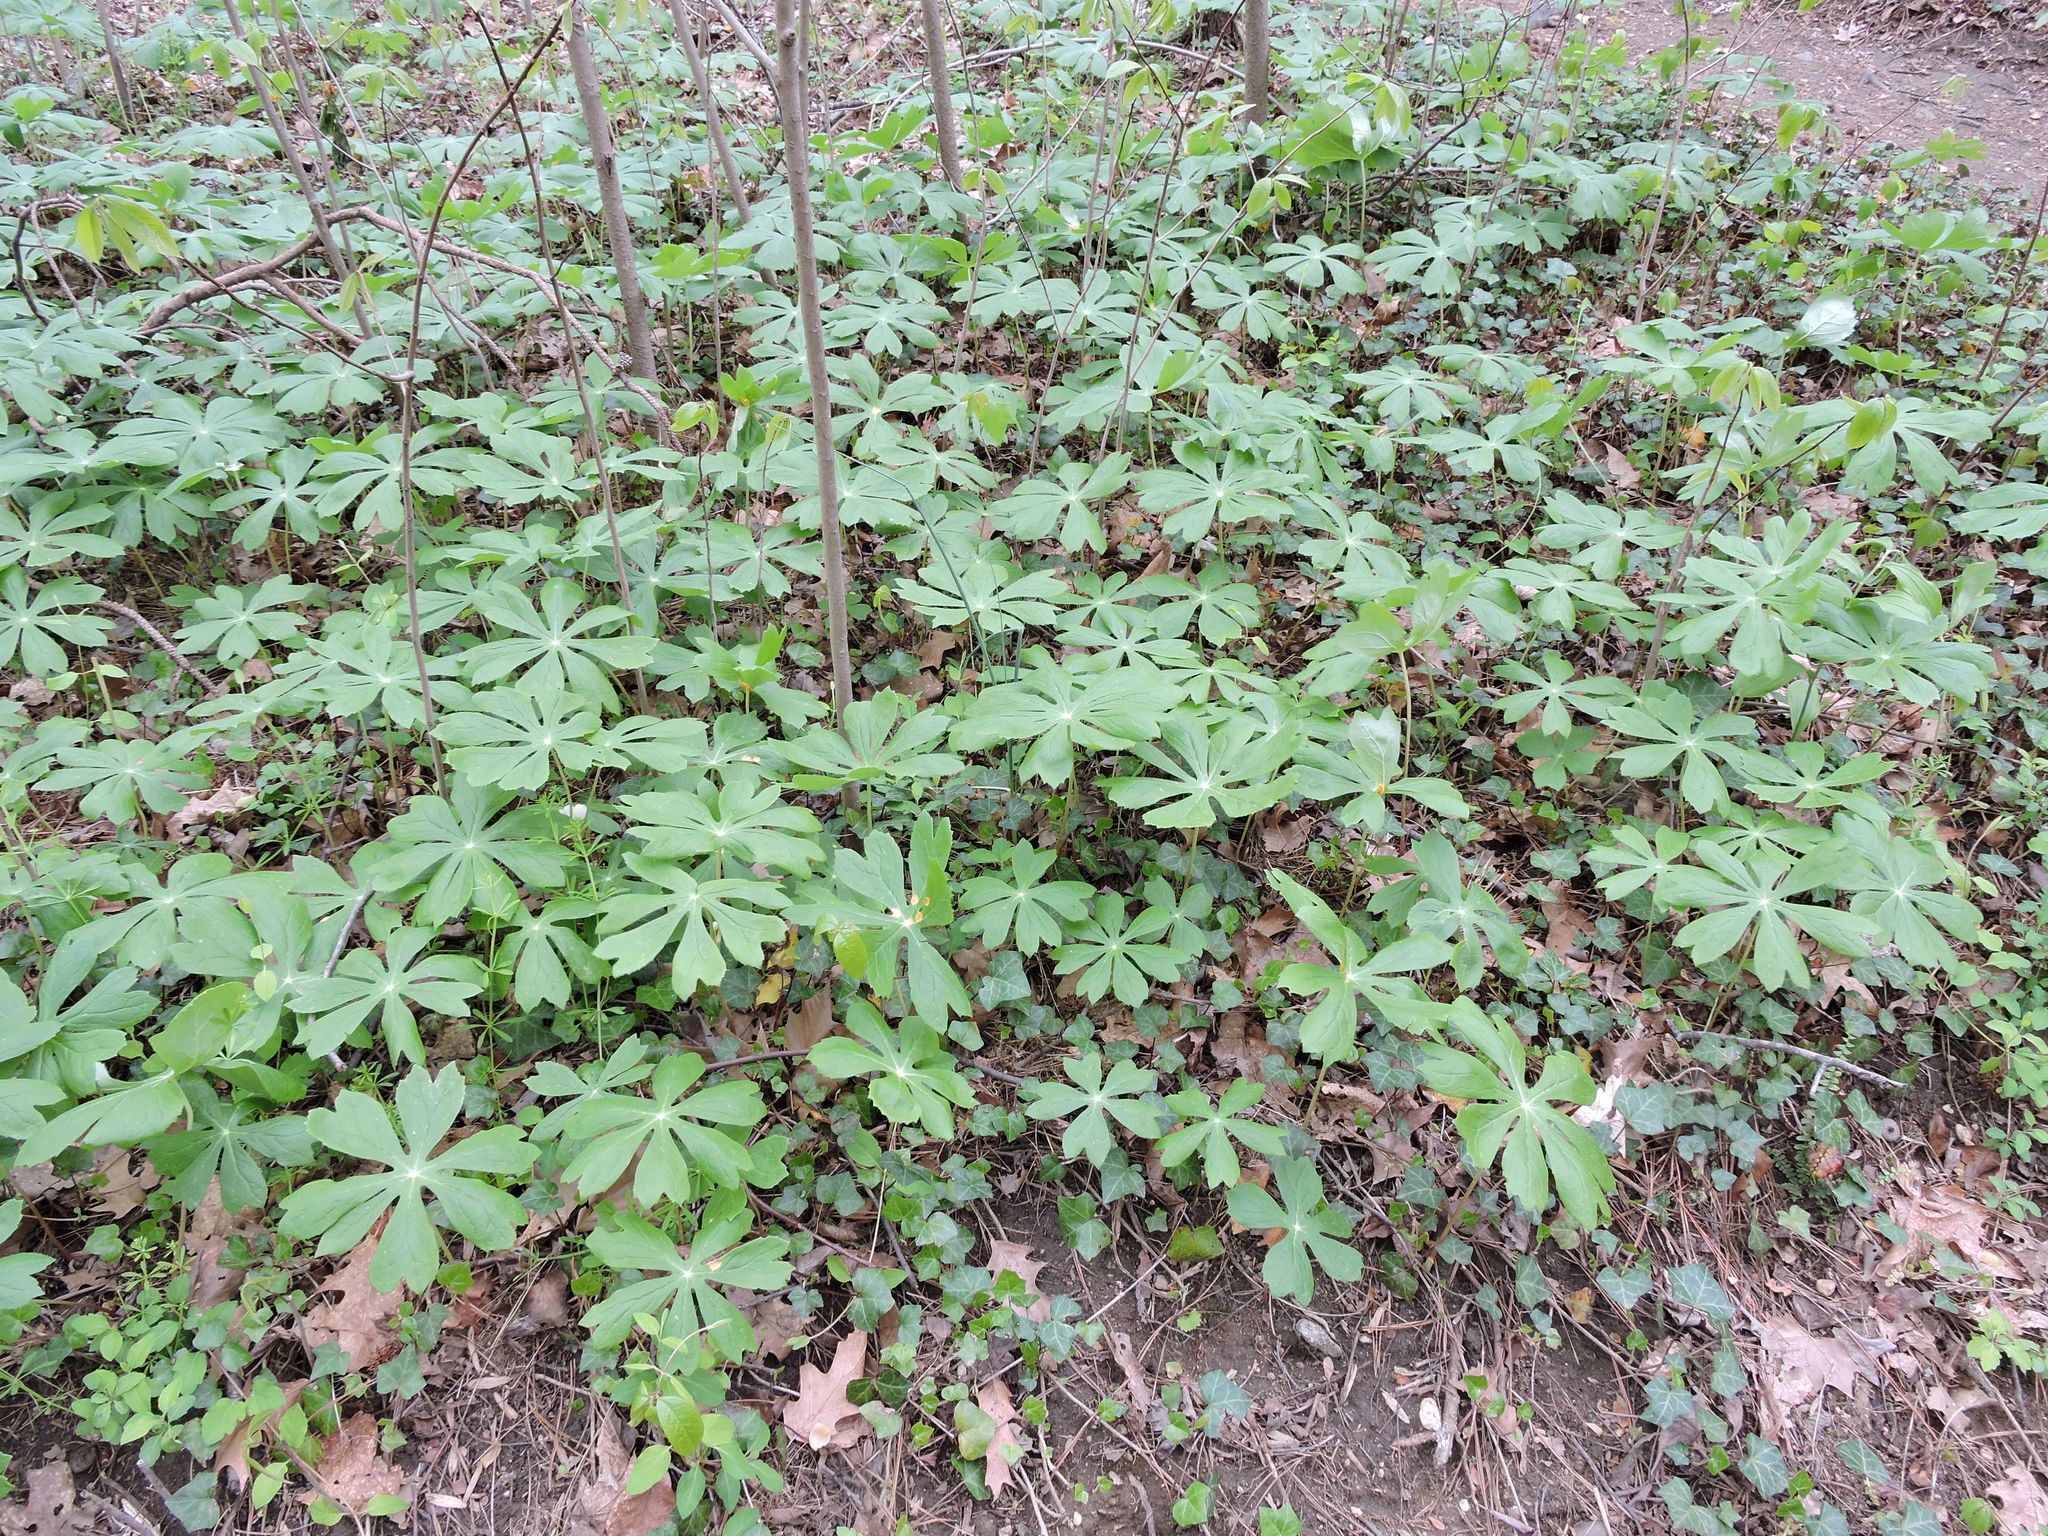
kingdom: Plantae
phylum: Tracheophyta
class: Magnoliopsida
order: Ranunculales
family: Berberidaceae
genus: Podophyllum
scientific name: Podophyllum peltatum
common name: Wild mandrake
